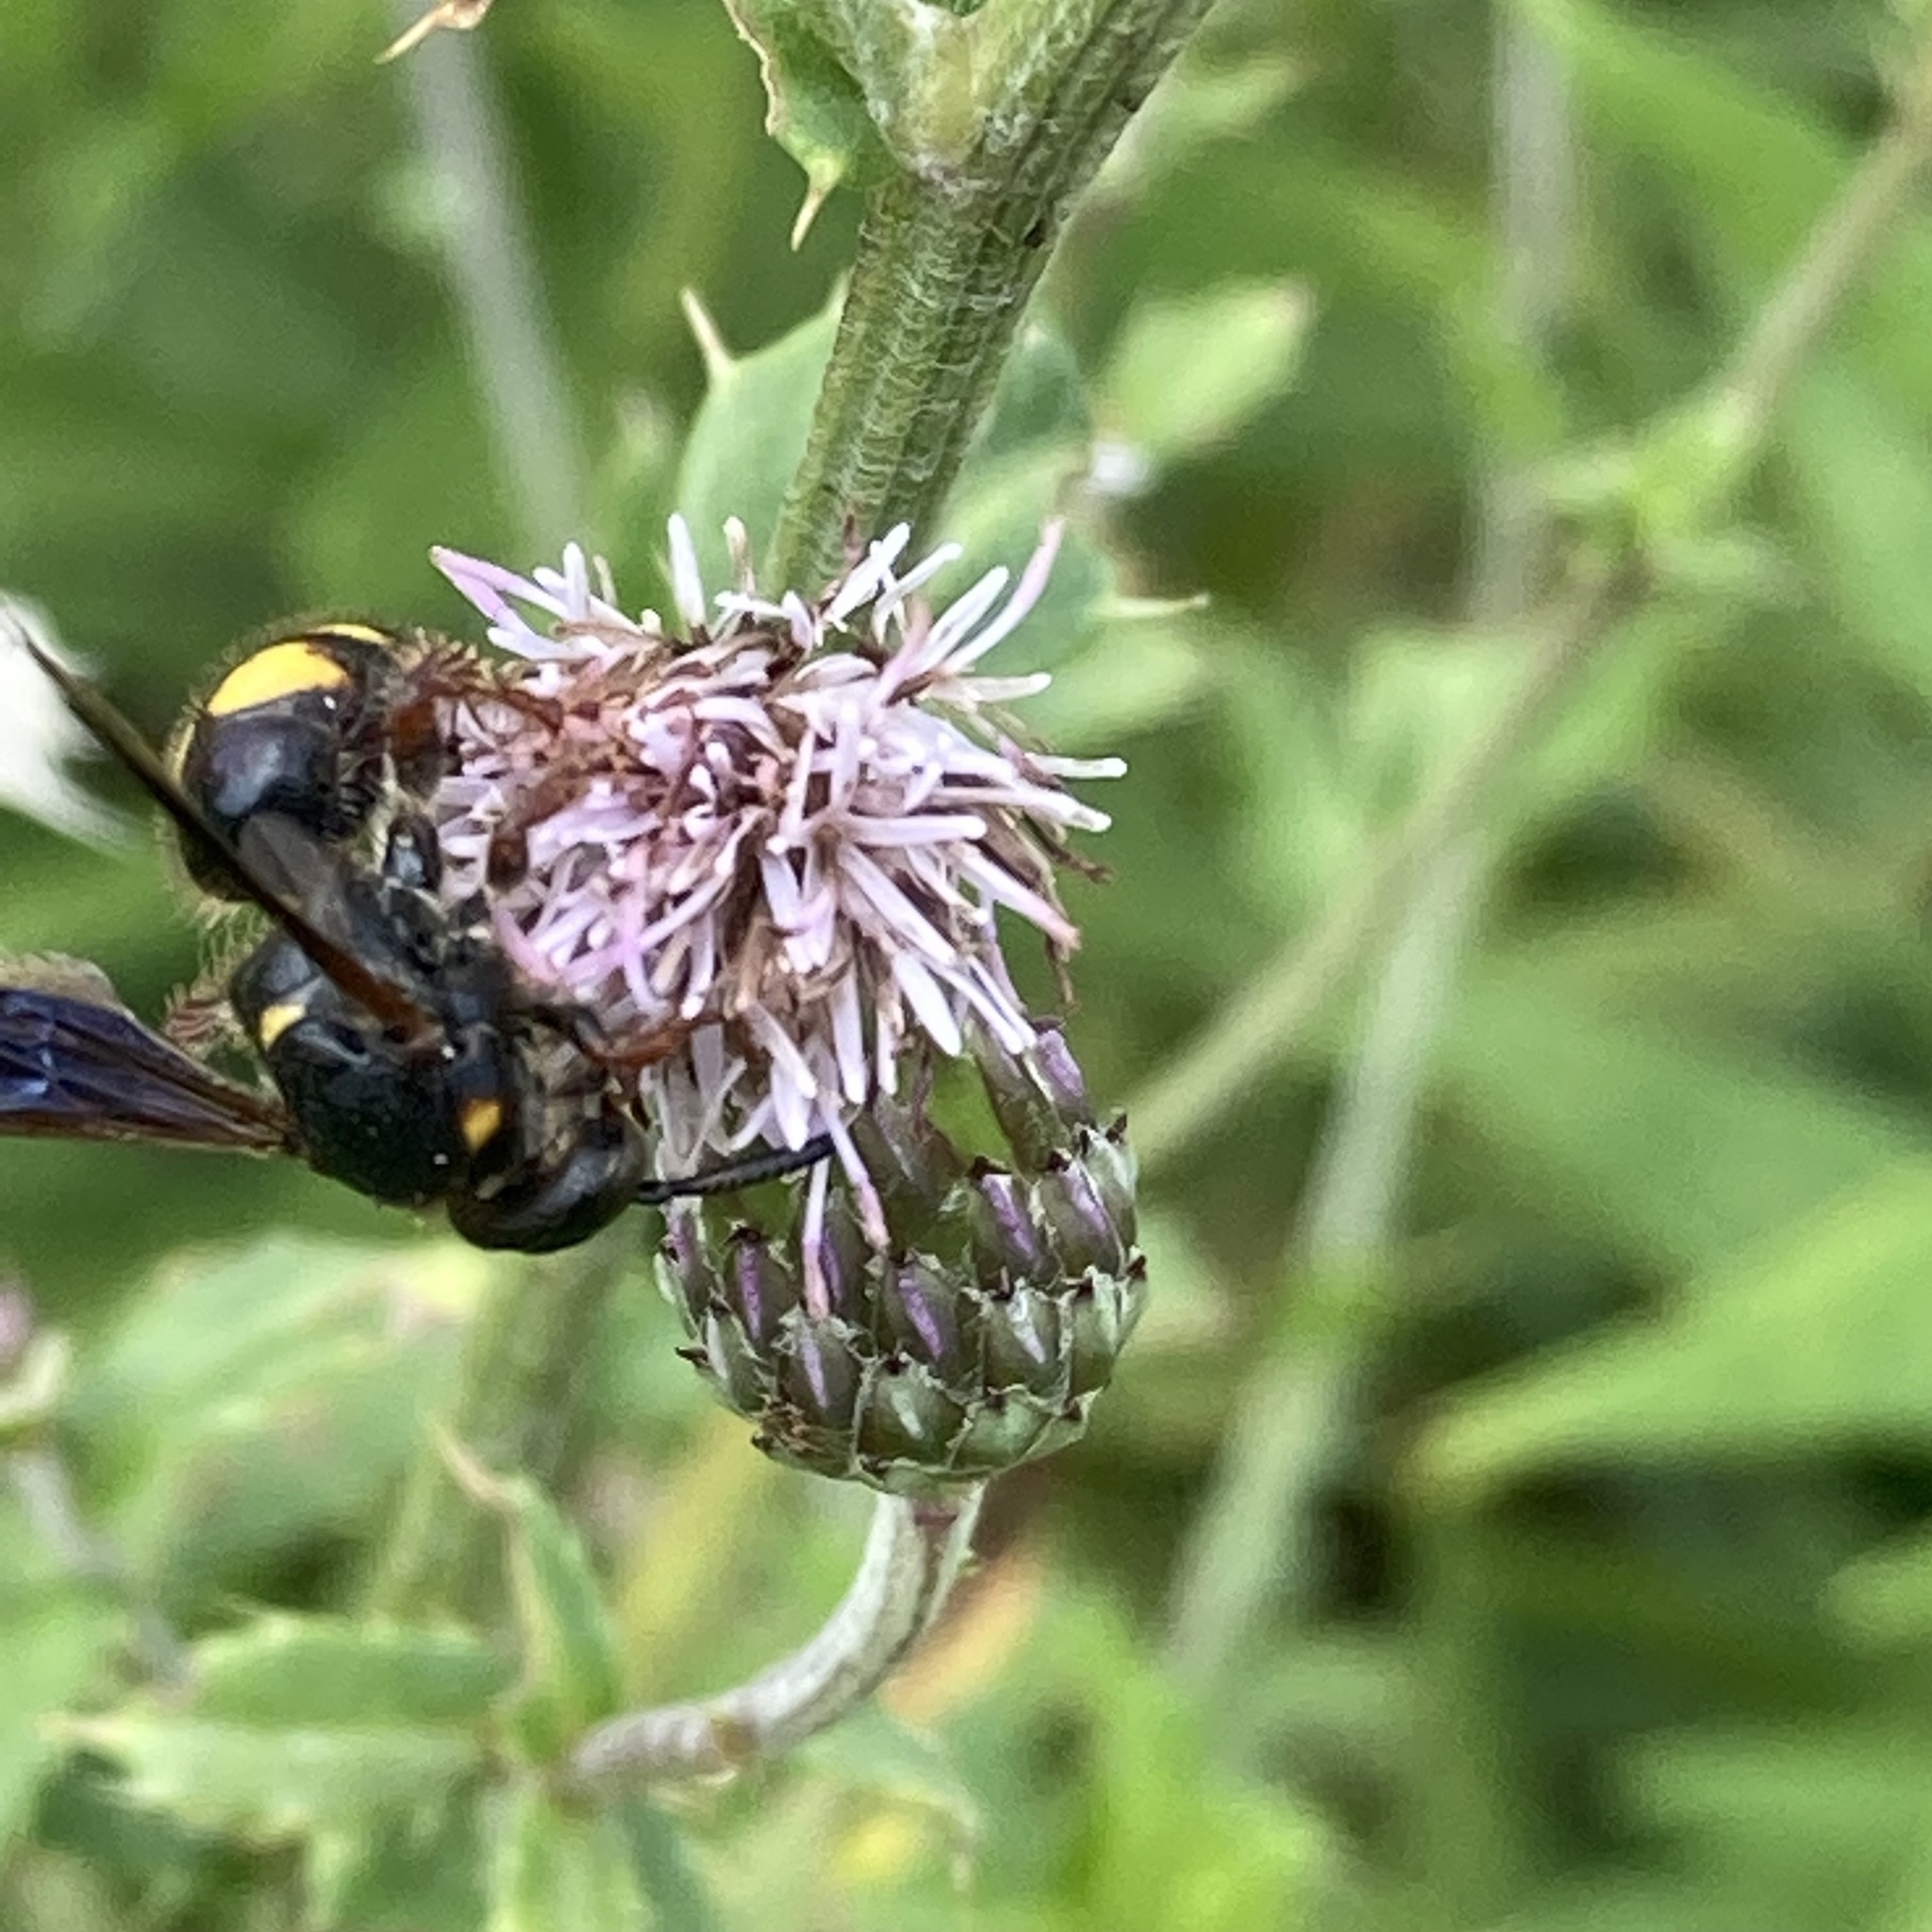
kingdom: Animalia
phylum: Arthropoda
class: Insecta
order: Hymenoptera
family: Scoliidae
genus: Scolia
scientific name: Scolia nobilitata
